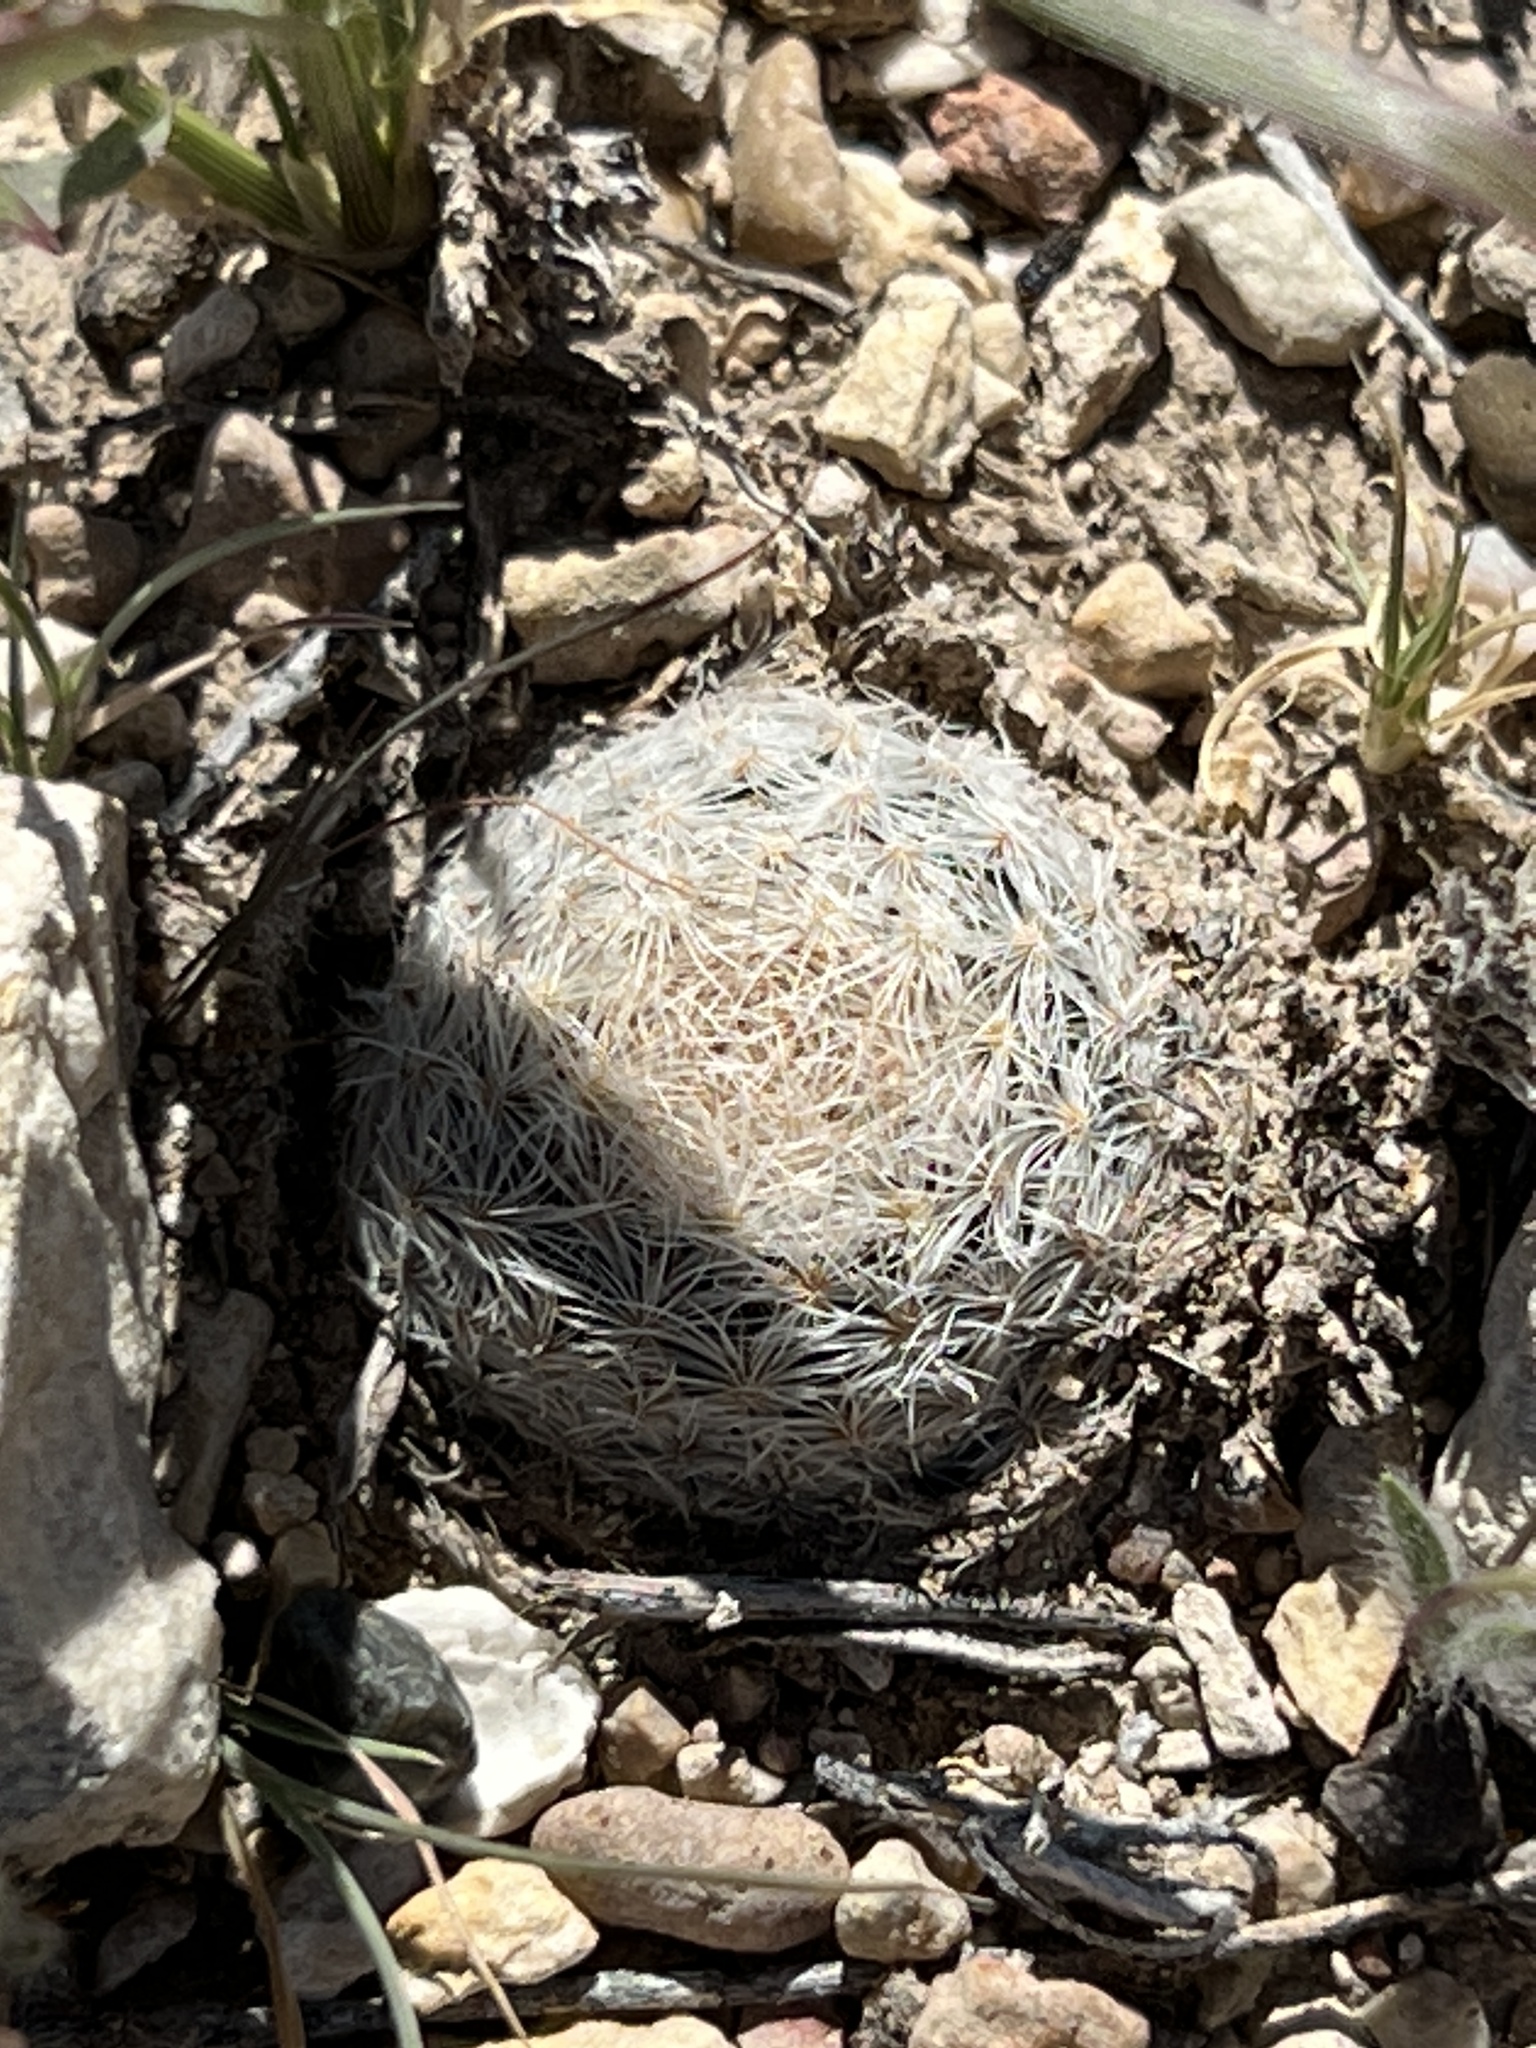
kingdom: Plantae
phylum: Tracheophyta
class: Magnoliopsida
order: Caryophyllales
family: Cactaceae
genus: Mammillaria
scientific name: Mammillaria lasiacantha
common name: Lace-spine nipple cactus
